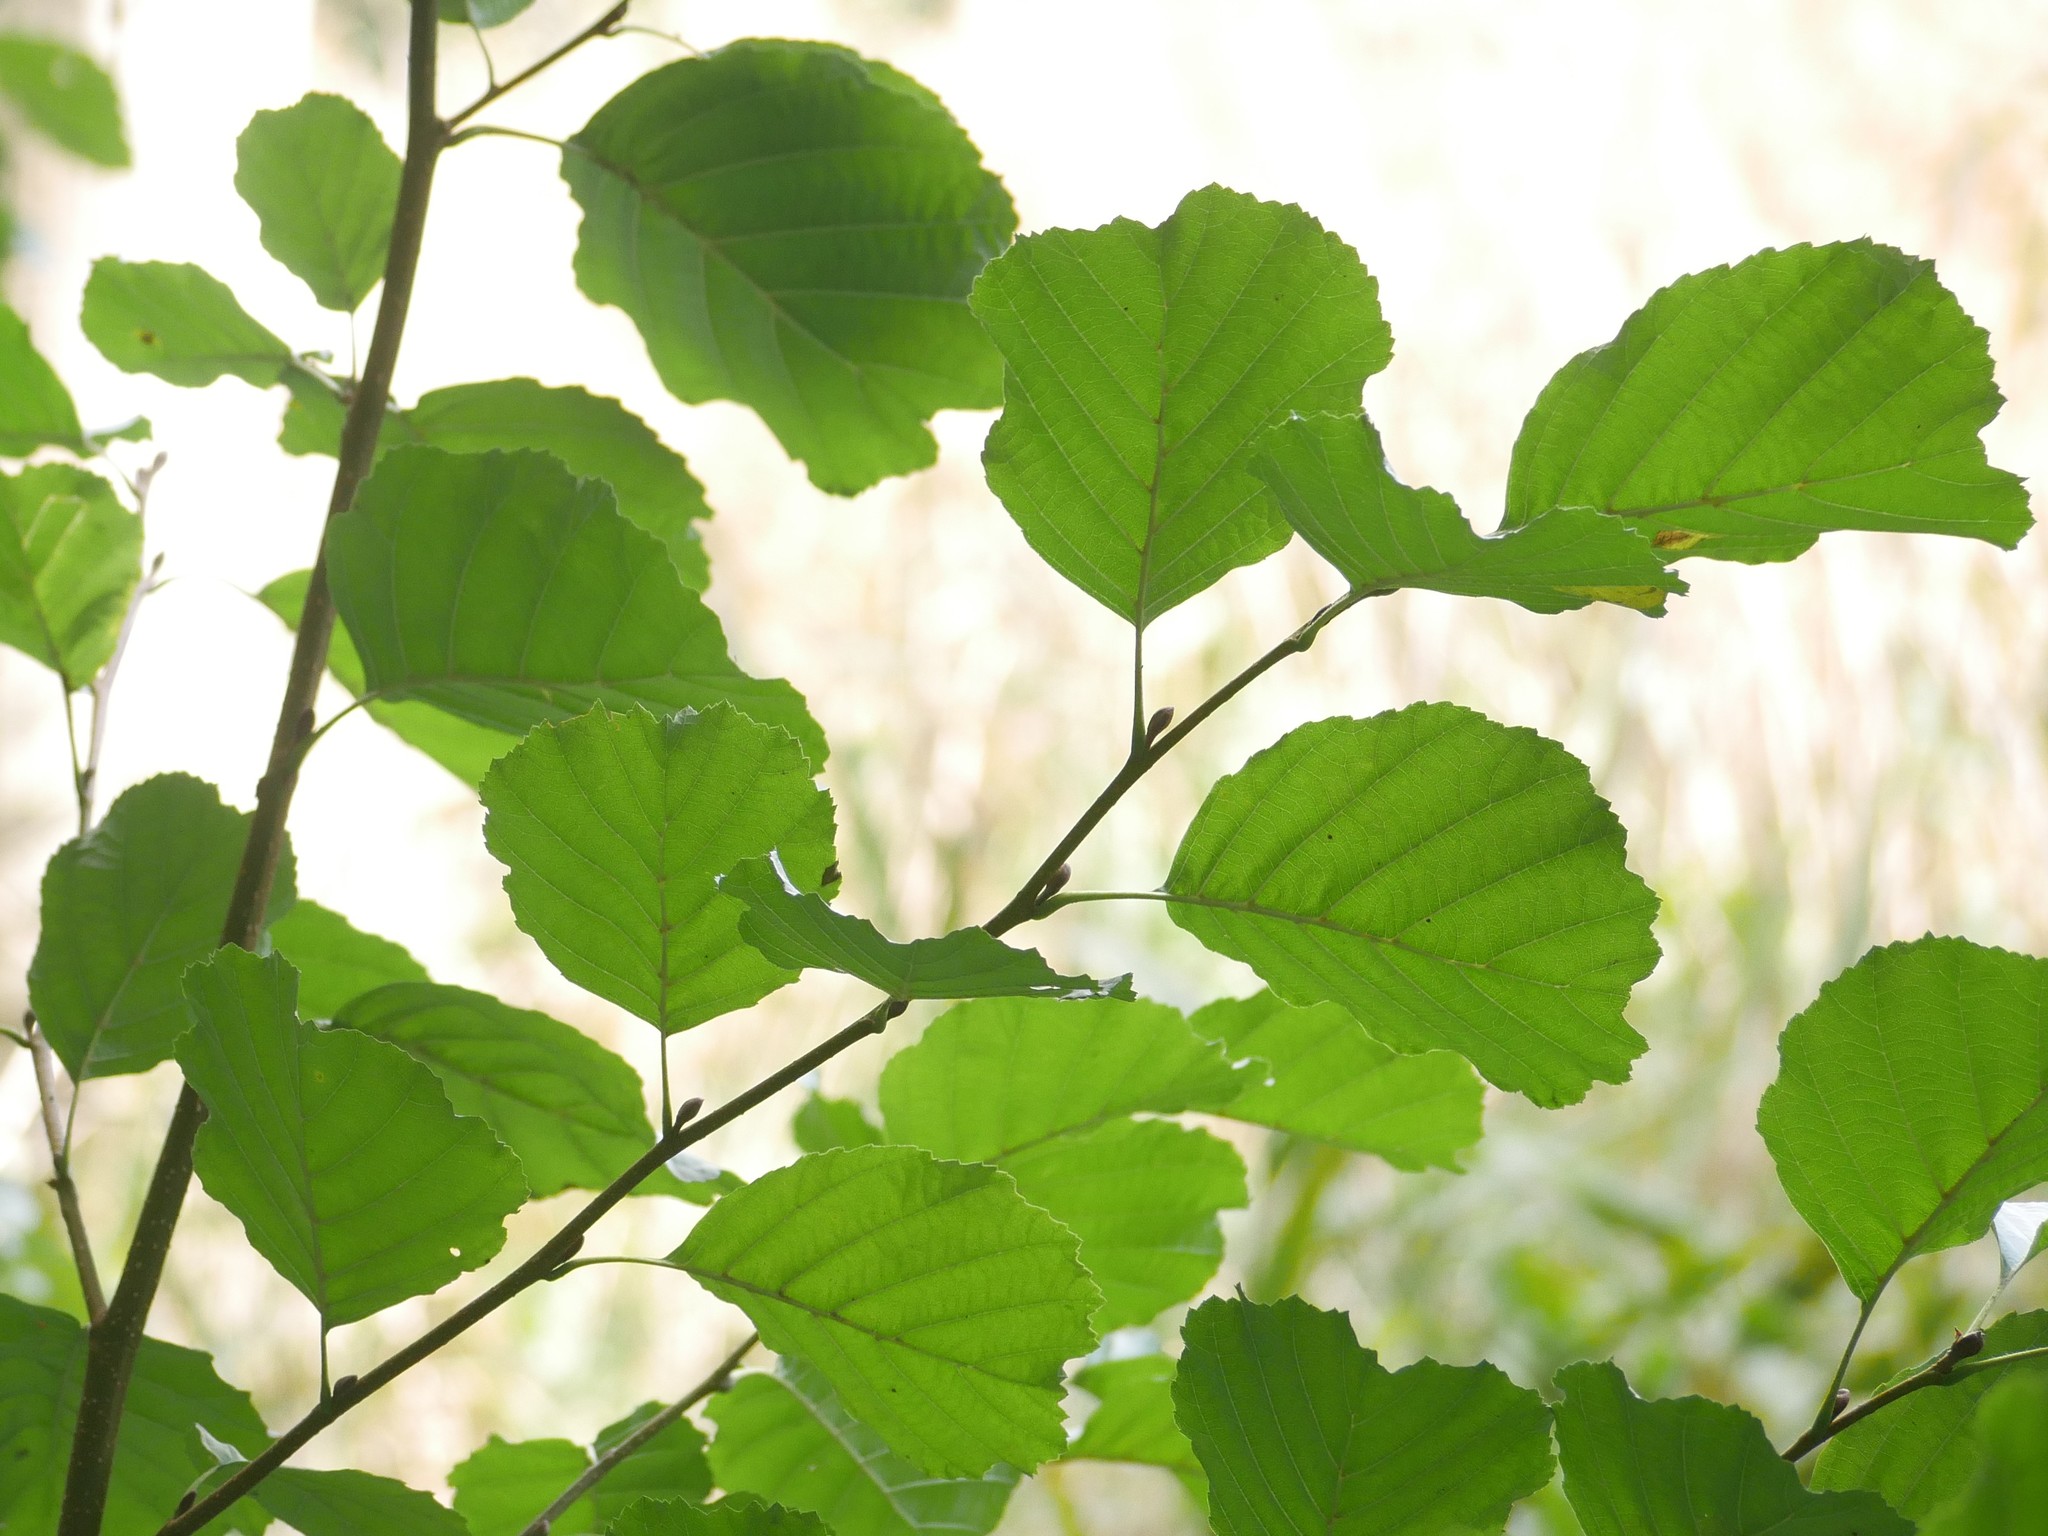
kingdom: Plantae
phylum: Tracheophyta
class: Magnoliopsida
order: Fagales
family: Betulaceae
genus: Alnus
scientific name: Alnus glutinosa
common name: Black alder
